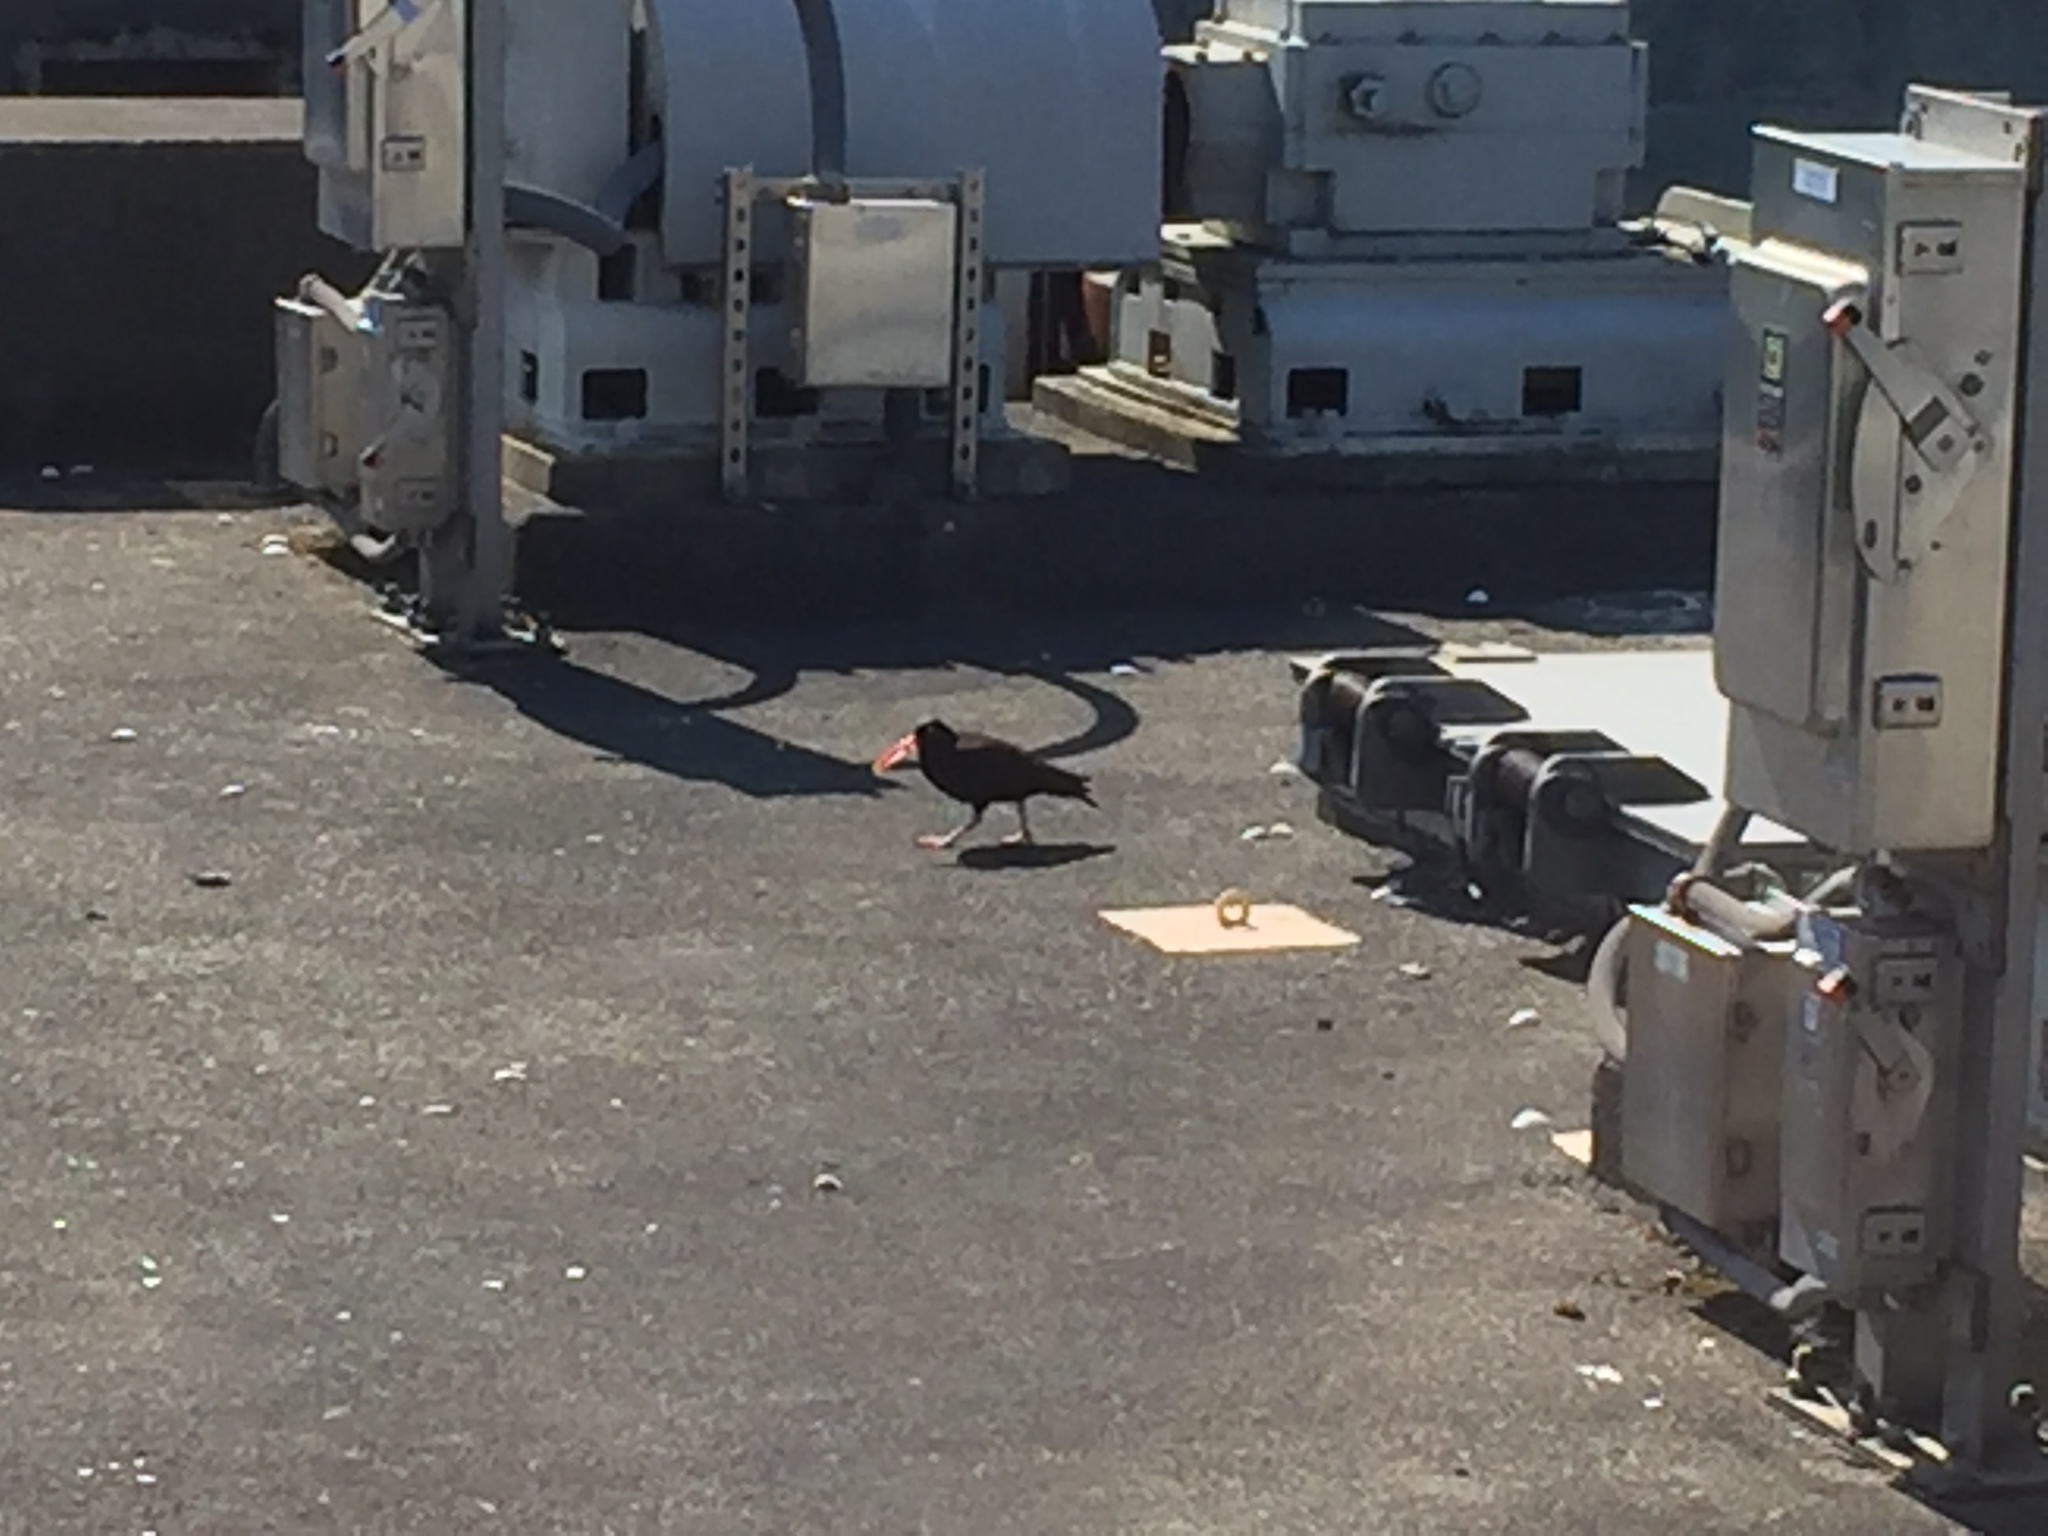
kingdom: Animalia
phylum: Chordata
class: Aves
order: Charadriiformes
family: Haematopodidae
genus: Haematopus
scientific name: Haematopus bachmani
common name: Black oystercatcher
